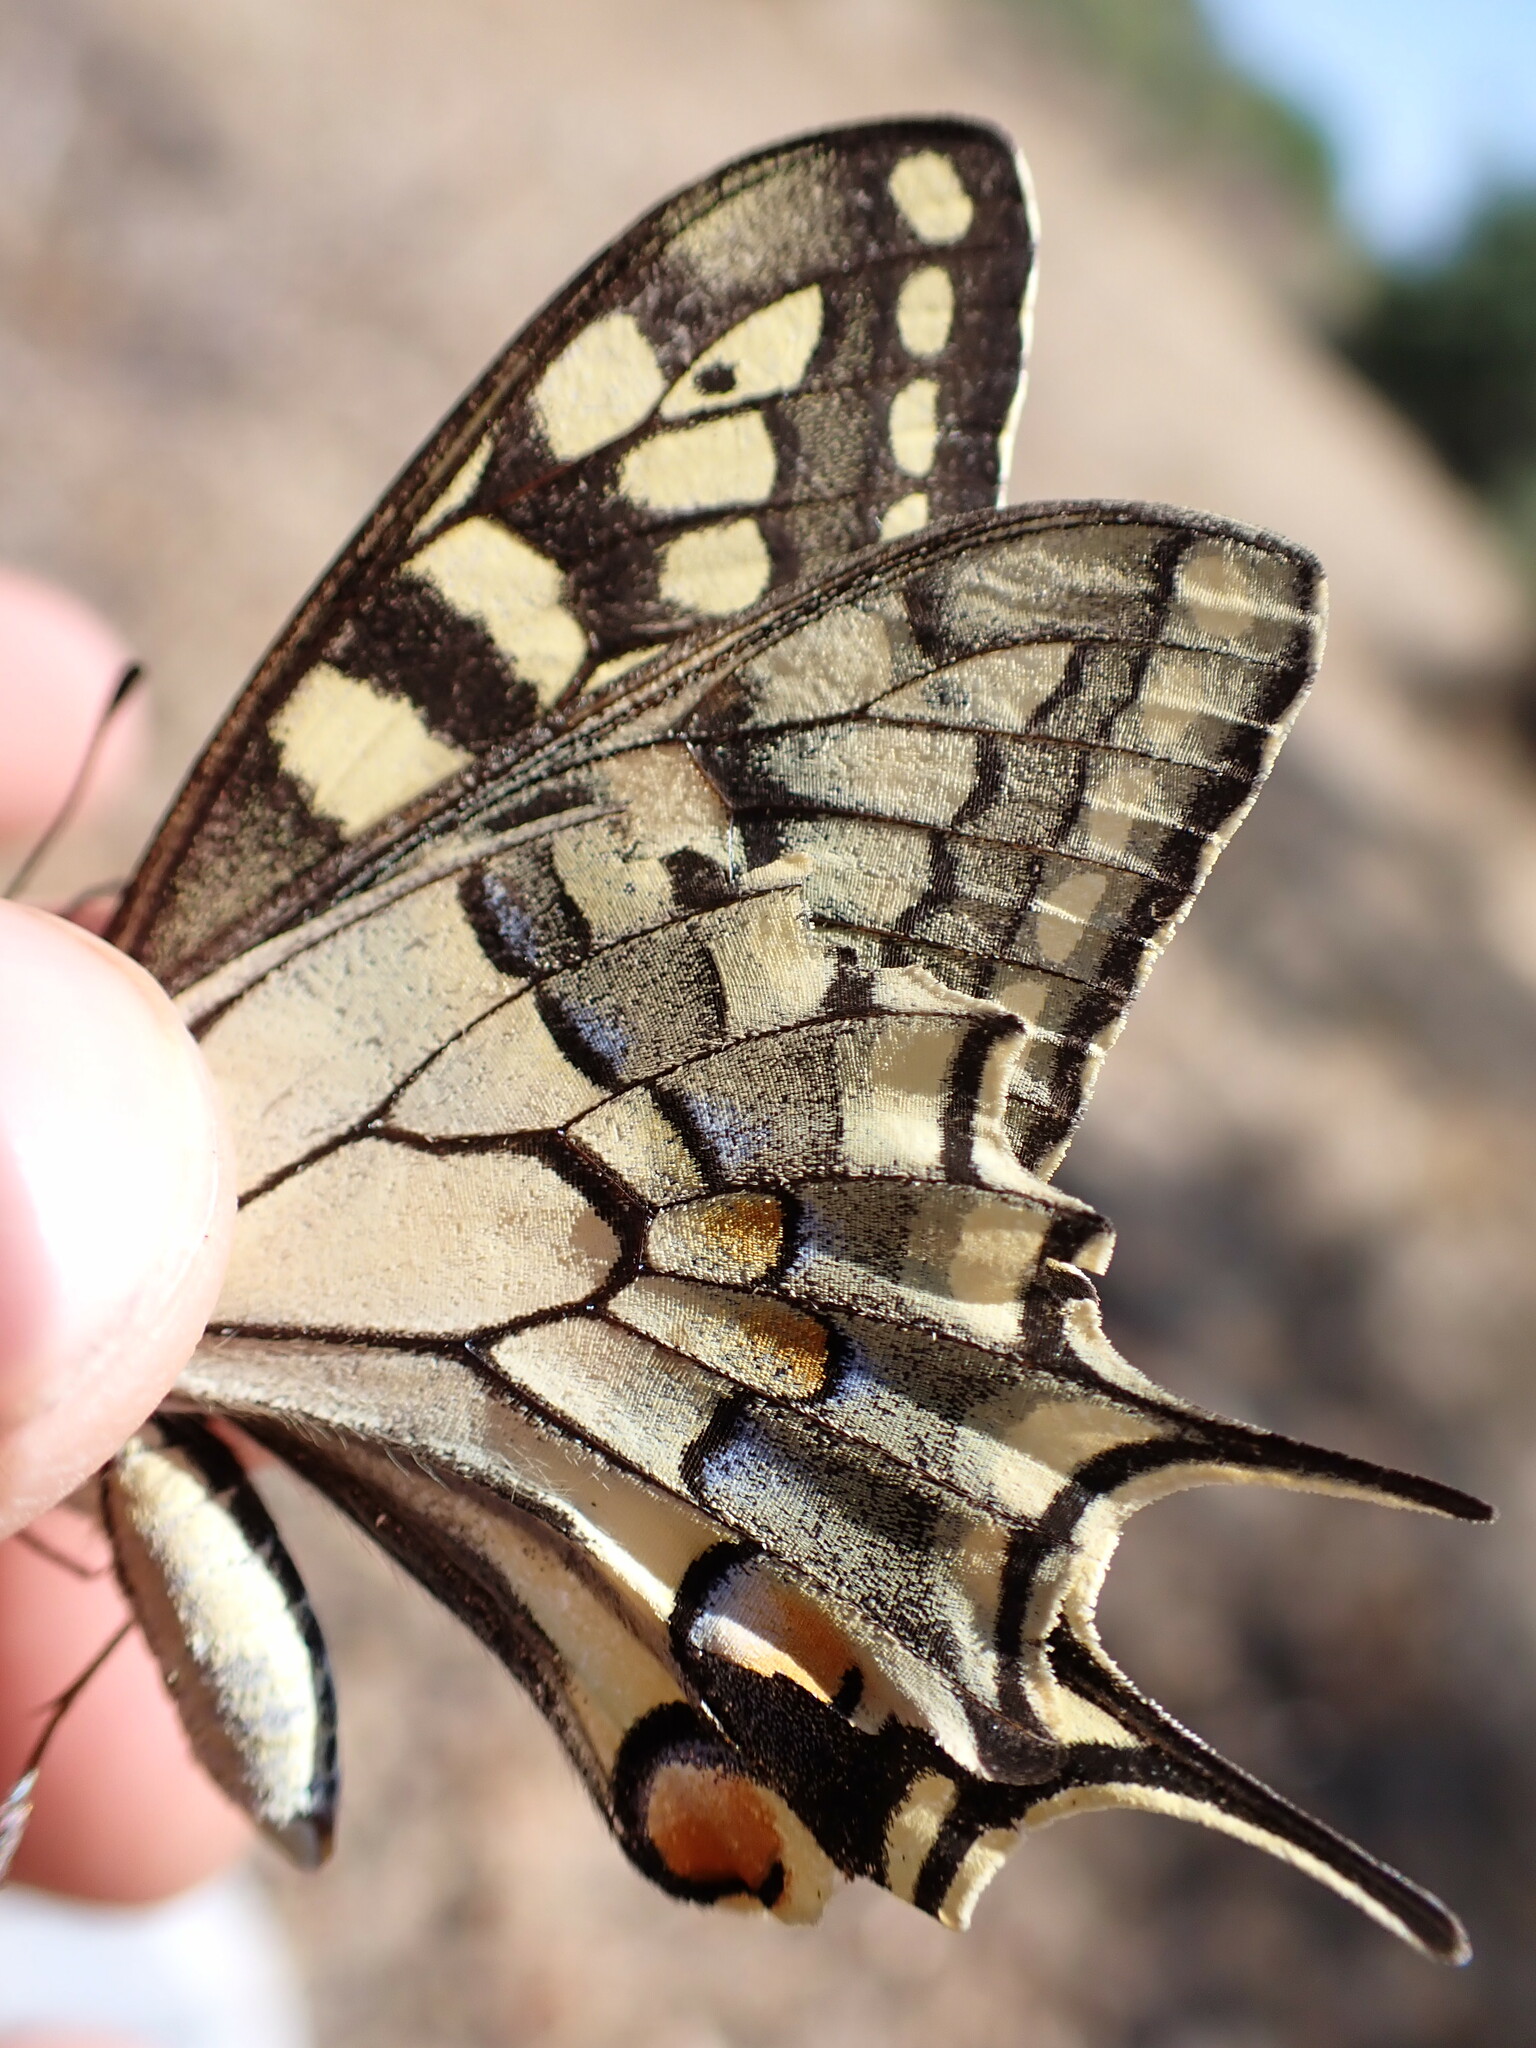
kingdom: Animalia
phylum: Arthropoda
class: Insecta
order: Lepidoptera
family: Papilionidae
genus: Papilio
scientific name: Papilio machaon
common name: Swallowtail
